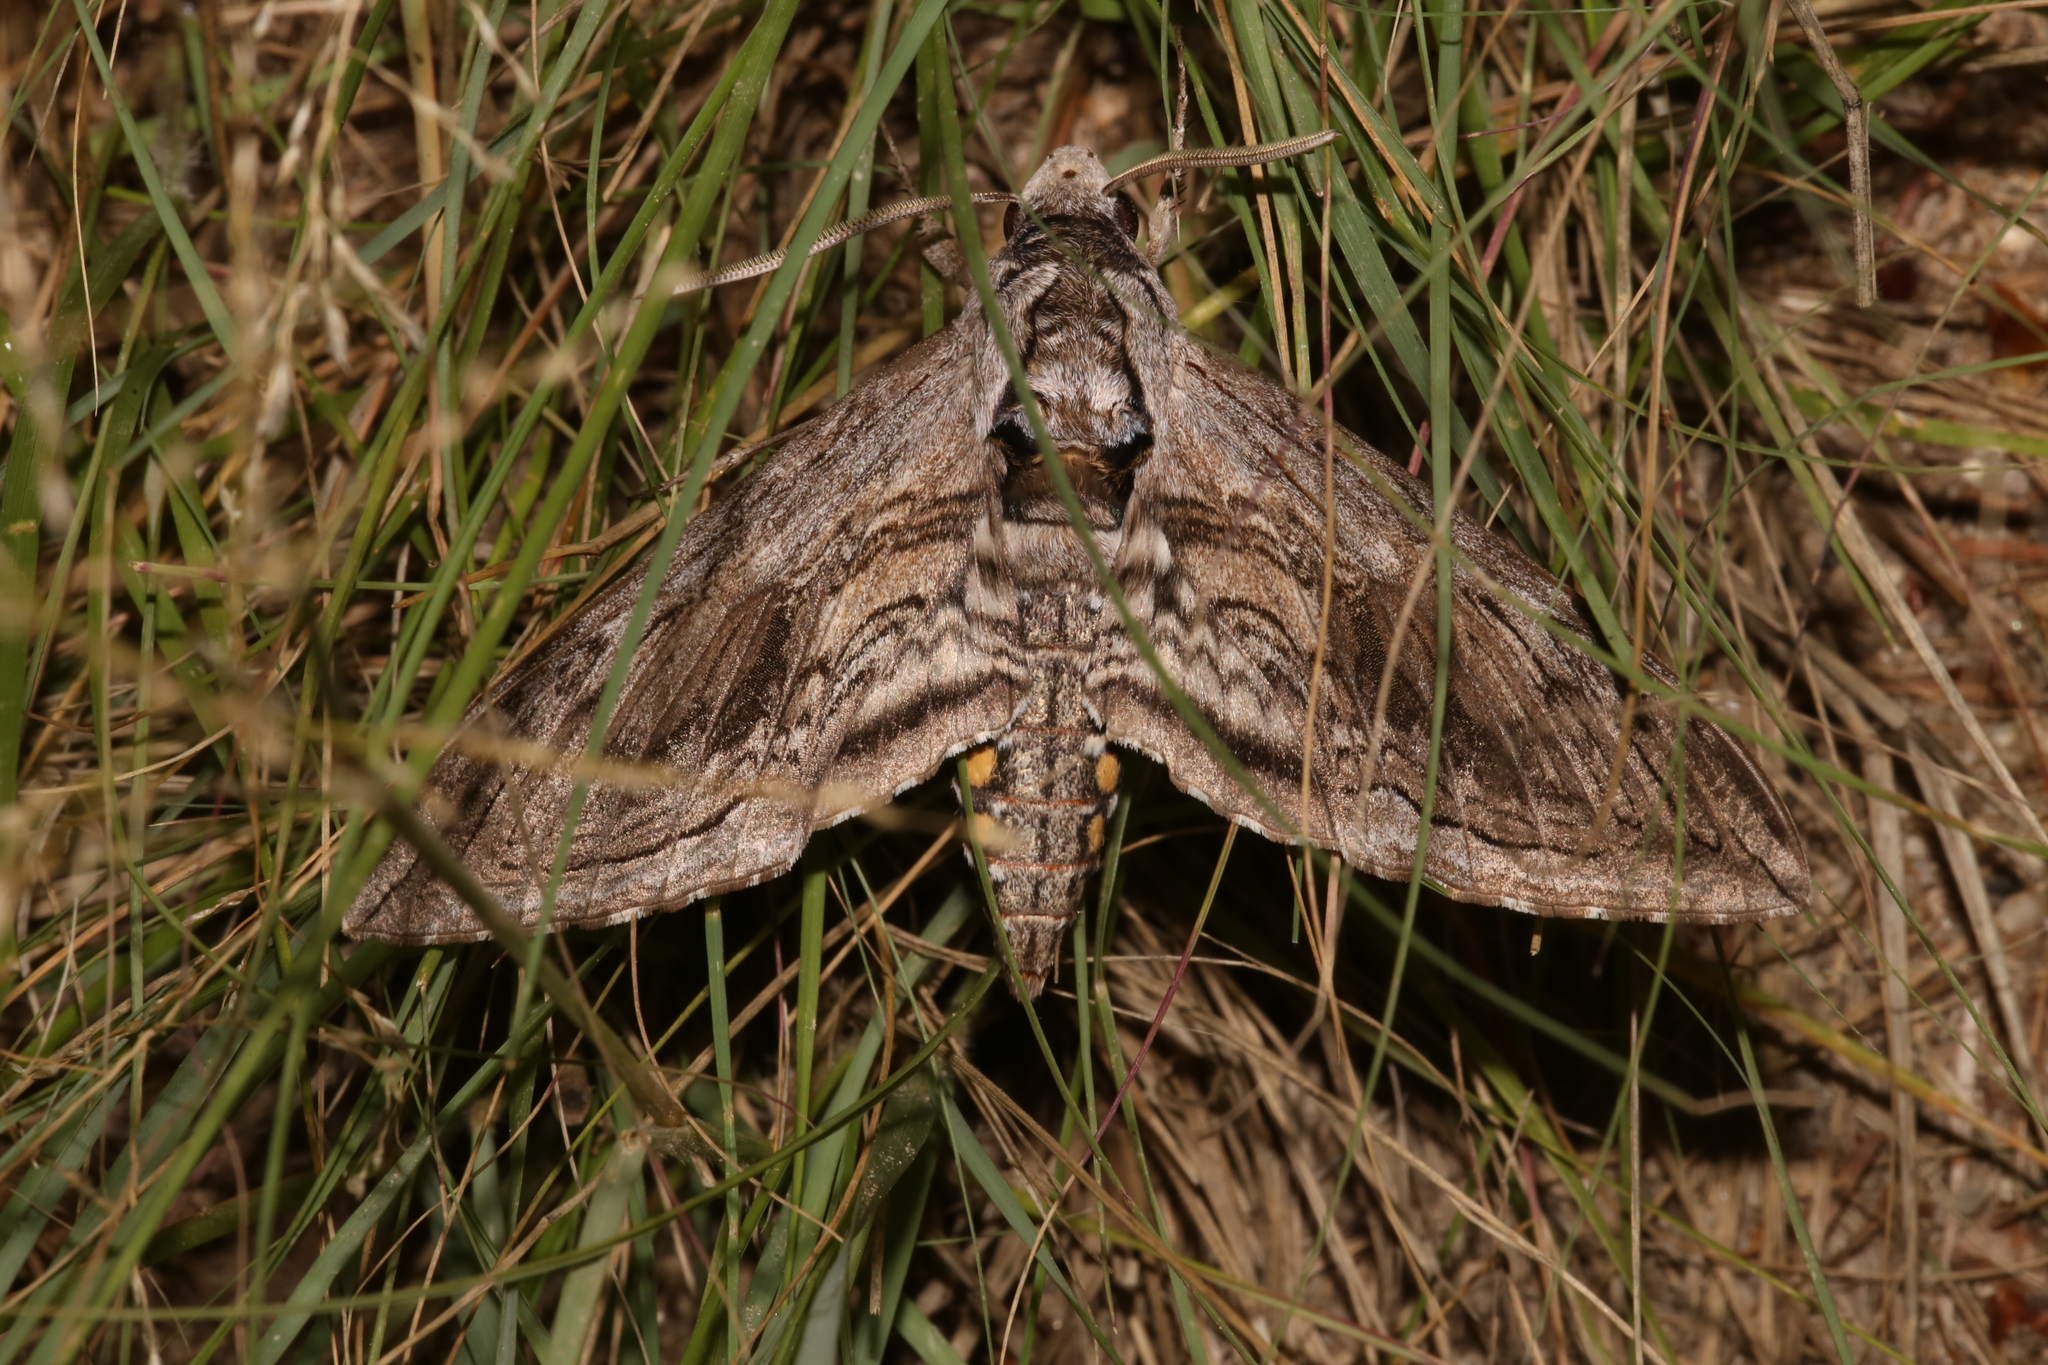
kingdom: Animalia
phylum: Arthropoda
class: Insecta
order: Lepidoptera
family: Sphingidae
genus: Manduca
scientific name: Manduca quinquemaculatus
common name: Five-spotted hawk-moth
